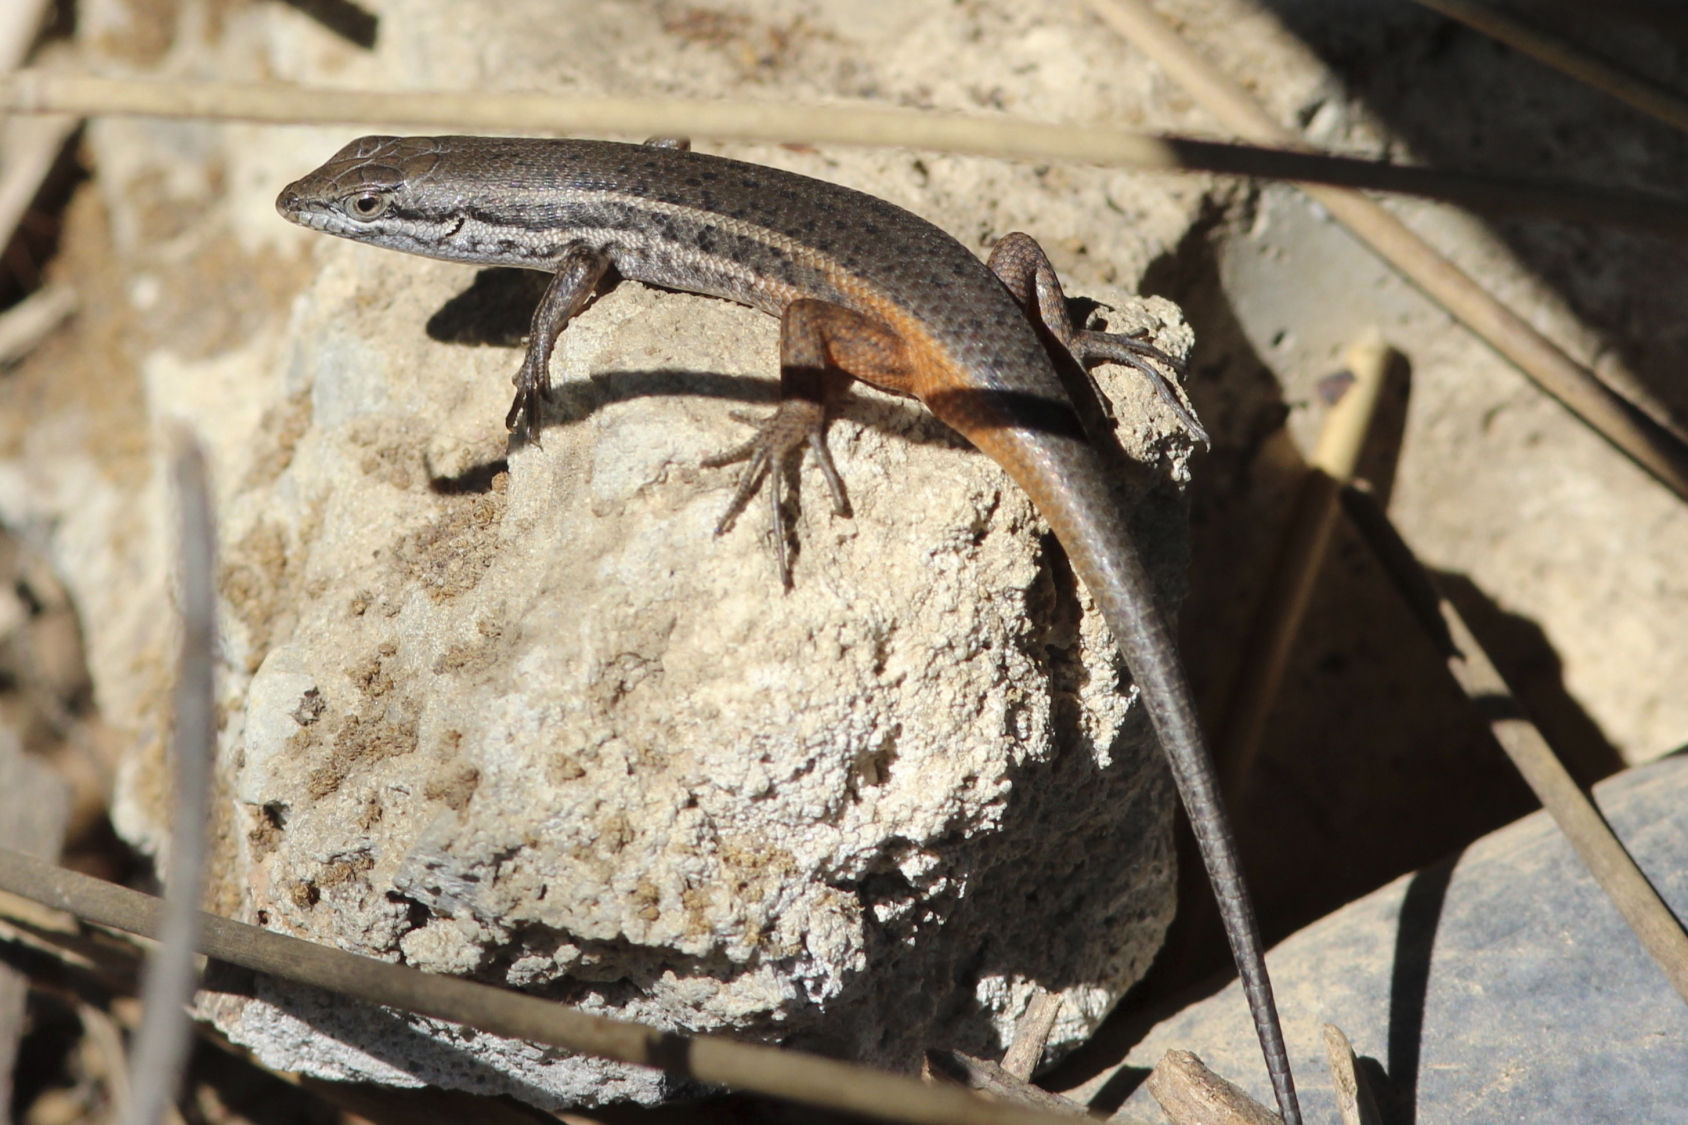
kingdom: Animalia
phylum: Chordata
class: Squamata
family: Scincidae
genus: Trachylepis
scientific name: Trachylepis variegata
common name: Variegated skink
